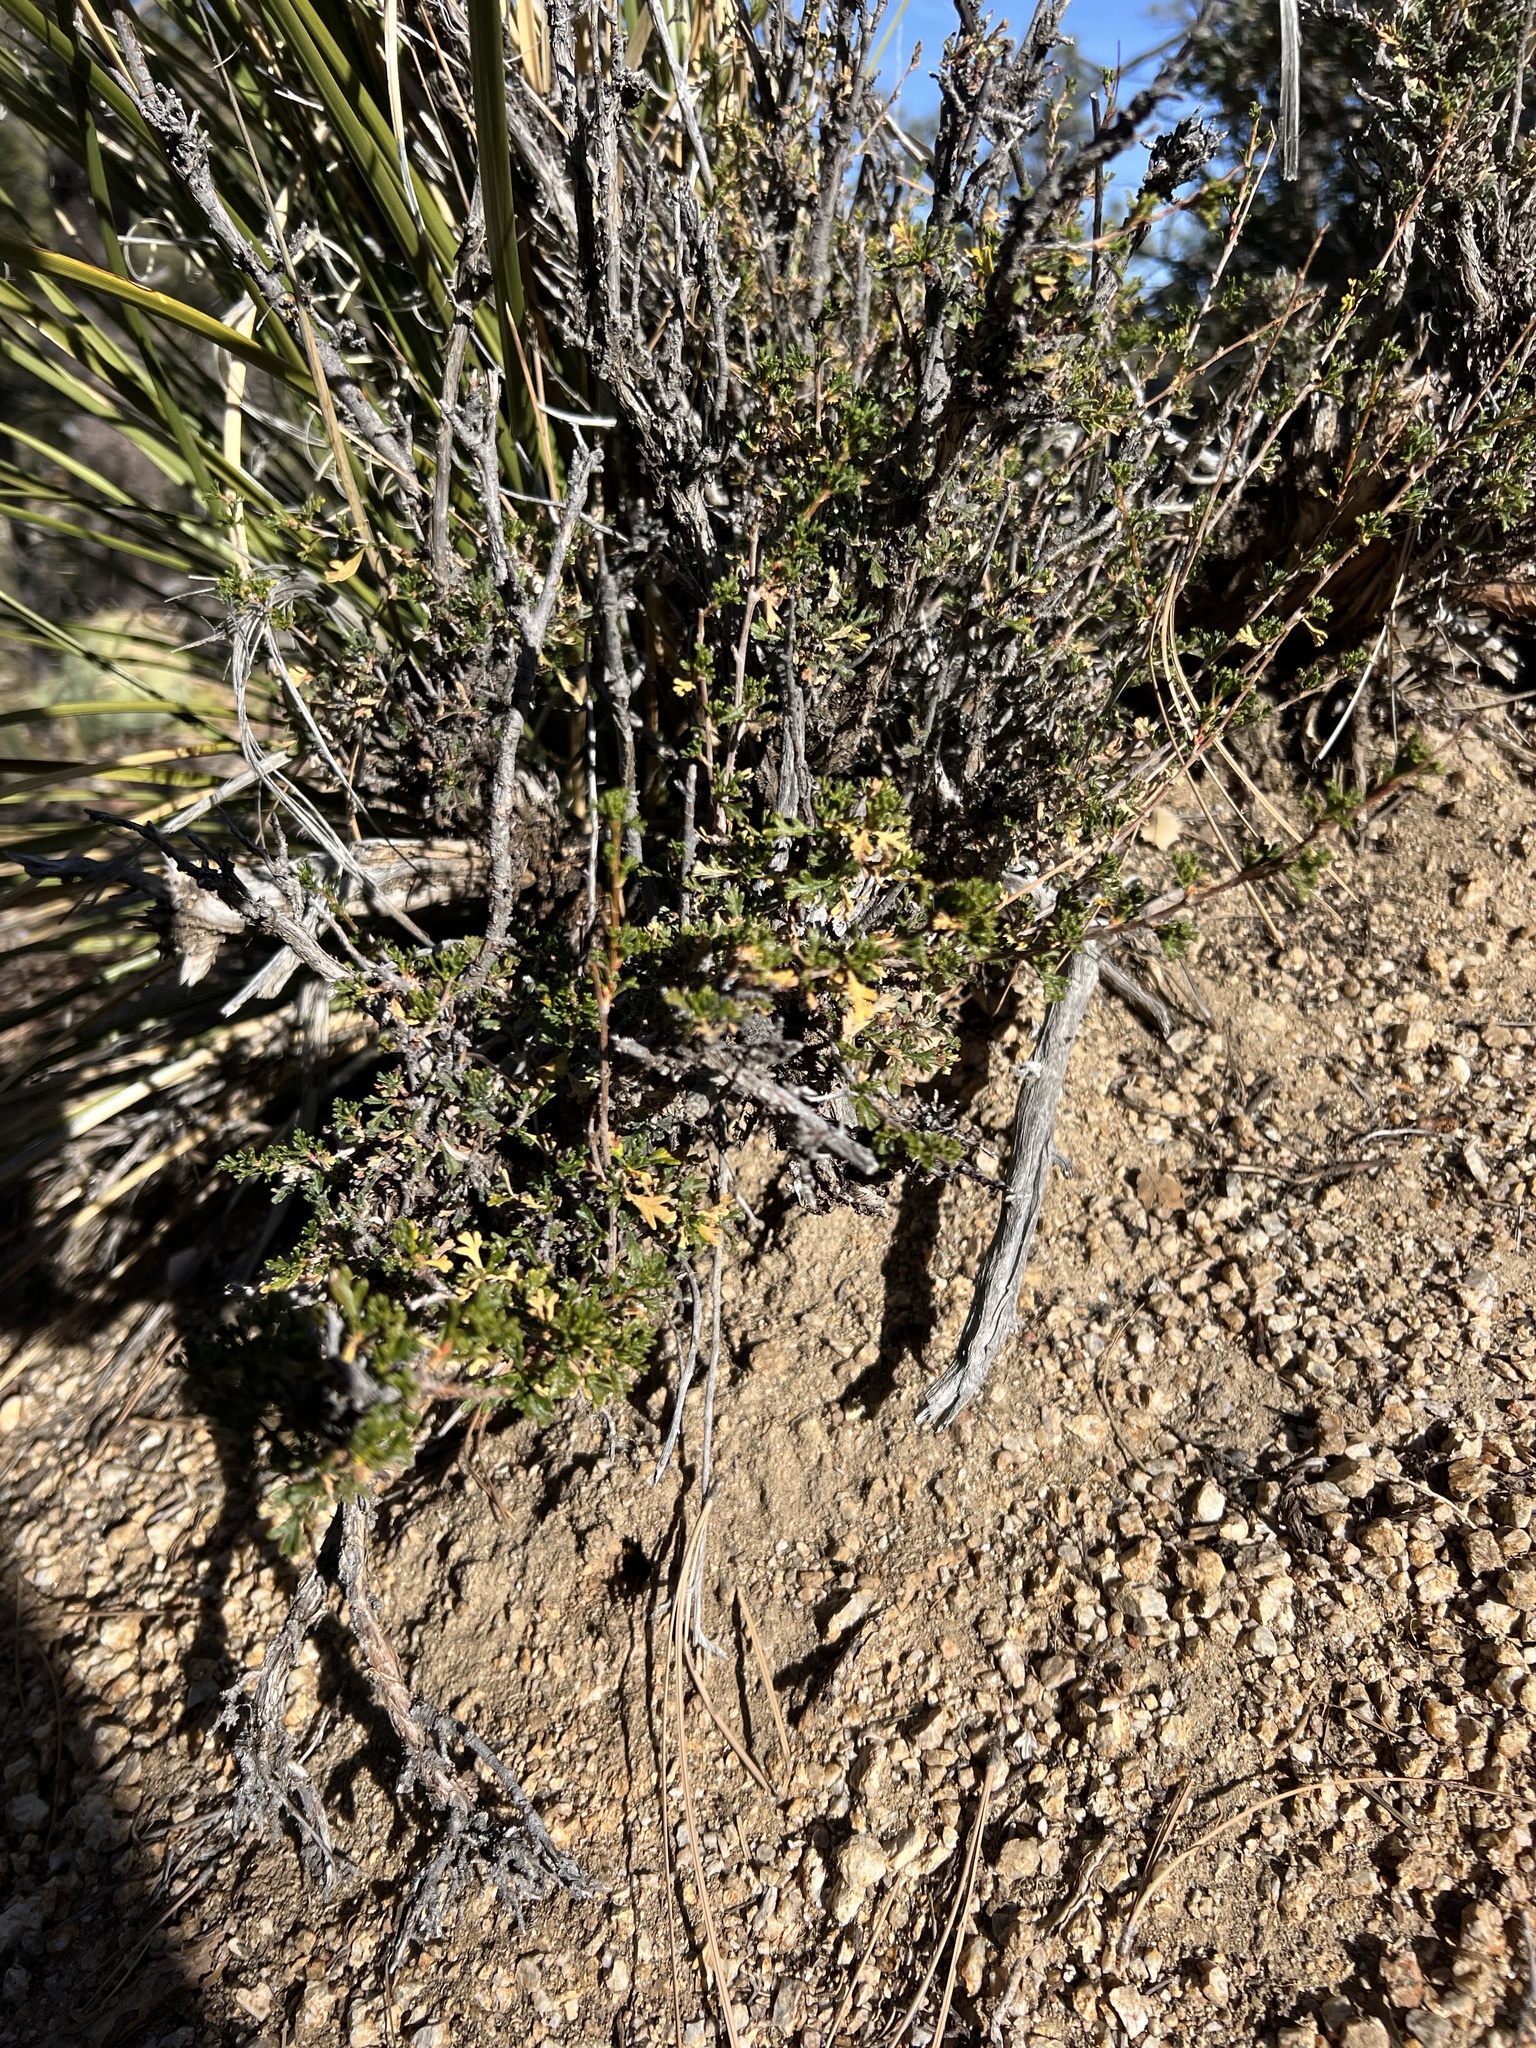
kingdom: Plantae
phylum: Tracheophyta
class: Magnoliopsida
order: Rosales
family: Rosaceae
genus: Purshia
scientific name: Purshia stansburiana
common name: Stansbury's cliffrose
